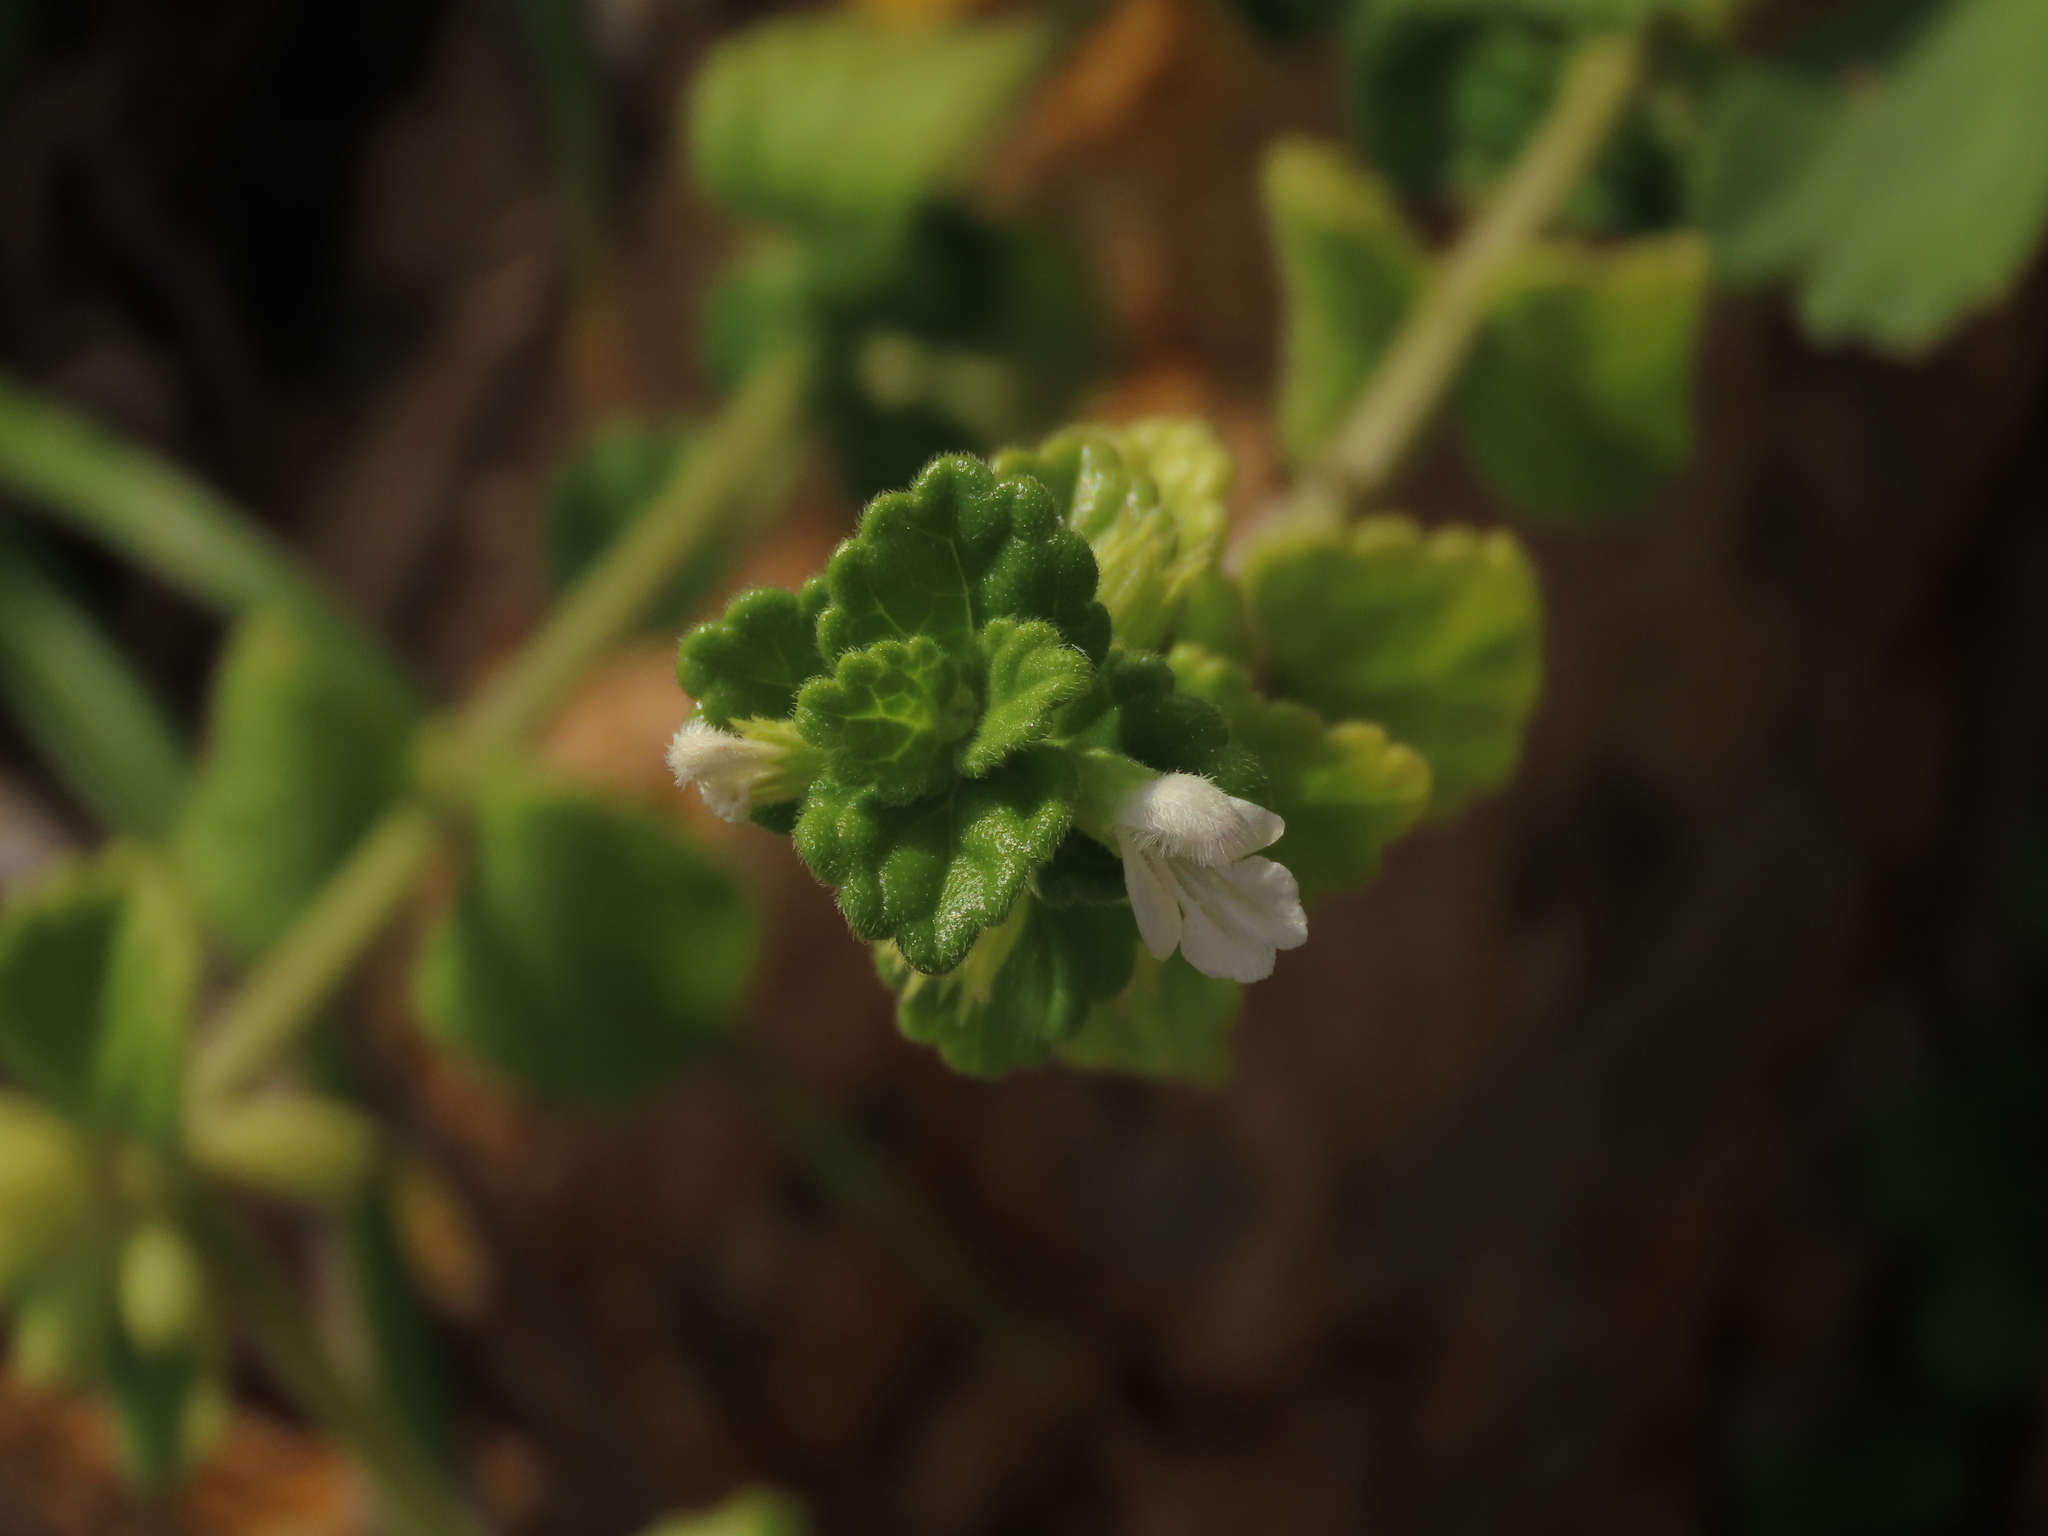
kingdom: Plantae
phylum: Tracheophyta
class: Magnoliopsida
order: Lamiales
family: Lamiaceae
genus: Leucas
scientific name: Leucas chinensis
